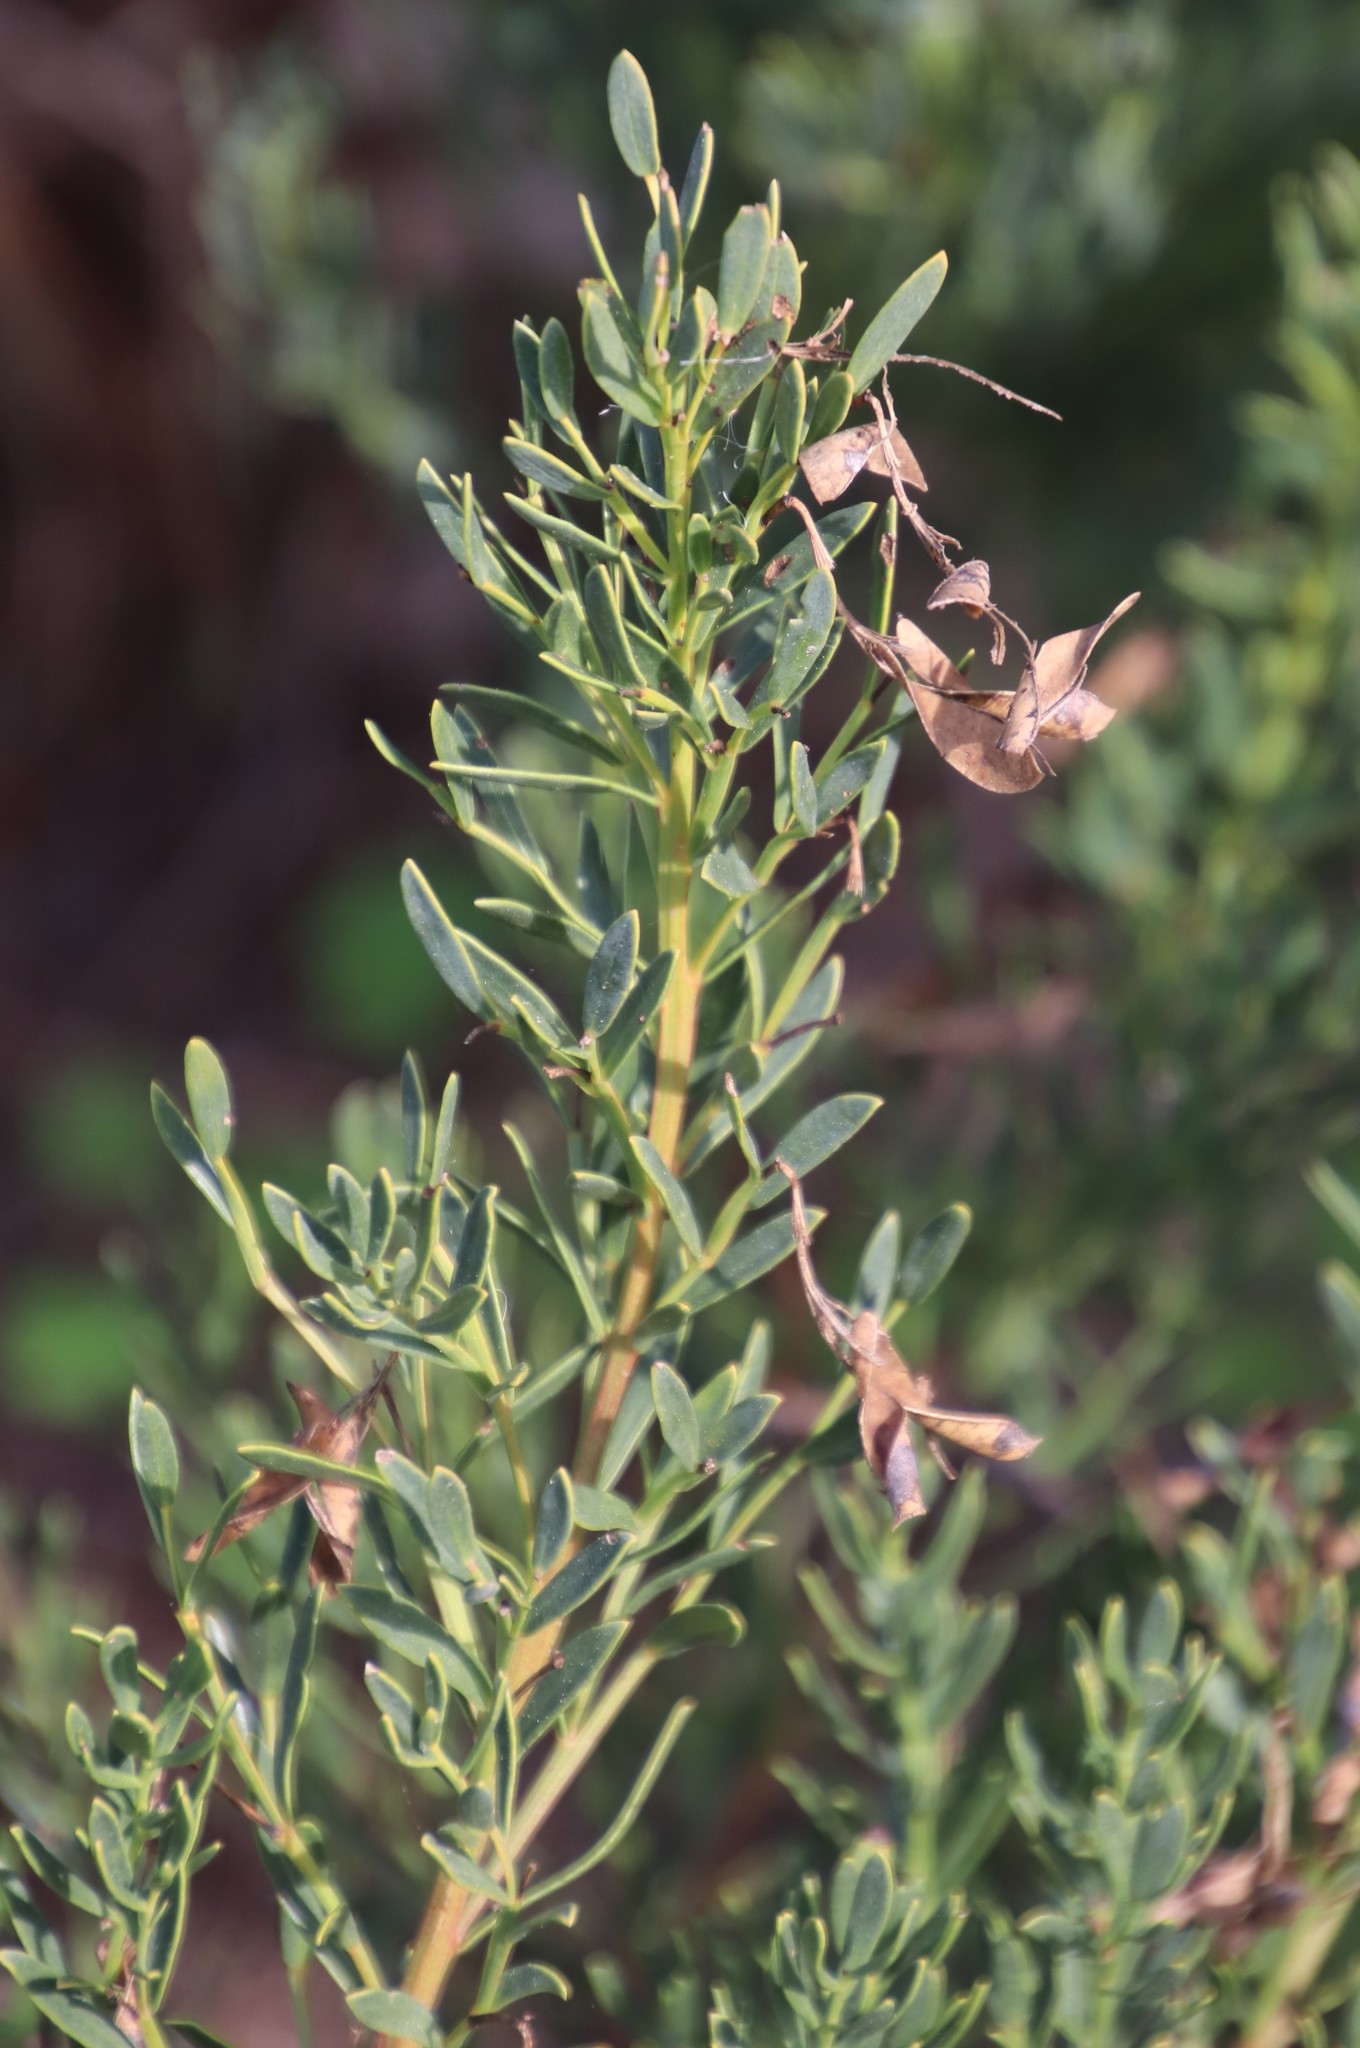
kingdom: Plantae
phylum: Tracheophyta
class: Magnoliopsida
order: Fabales
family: Fabaceae
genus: Rafnia
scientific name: Rafnia capensis
